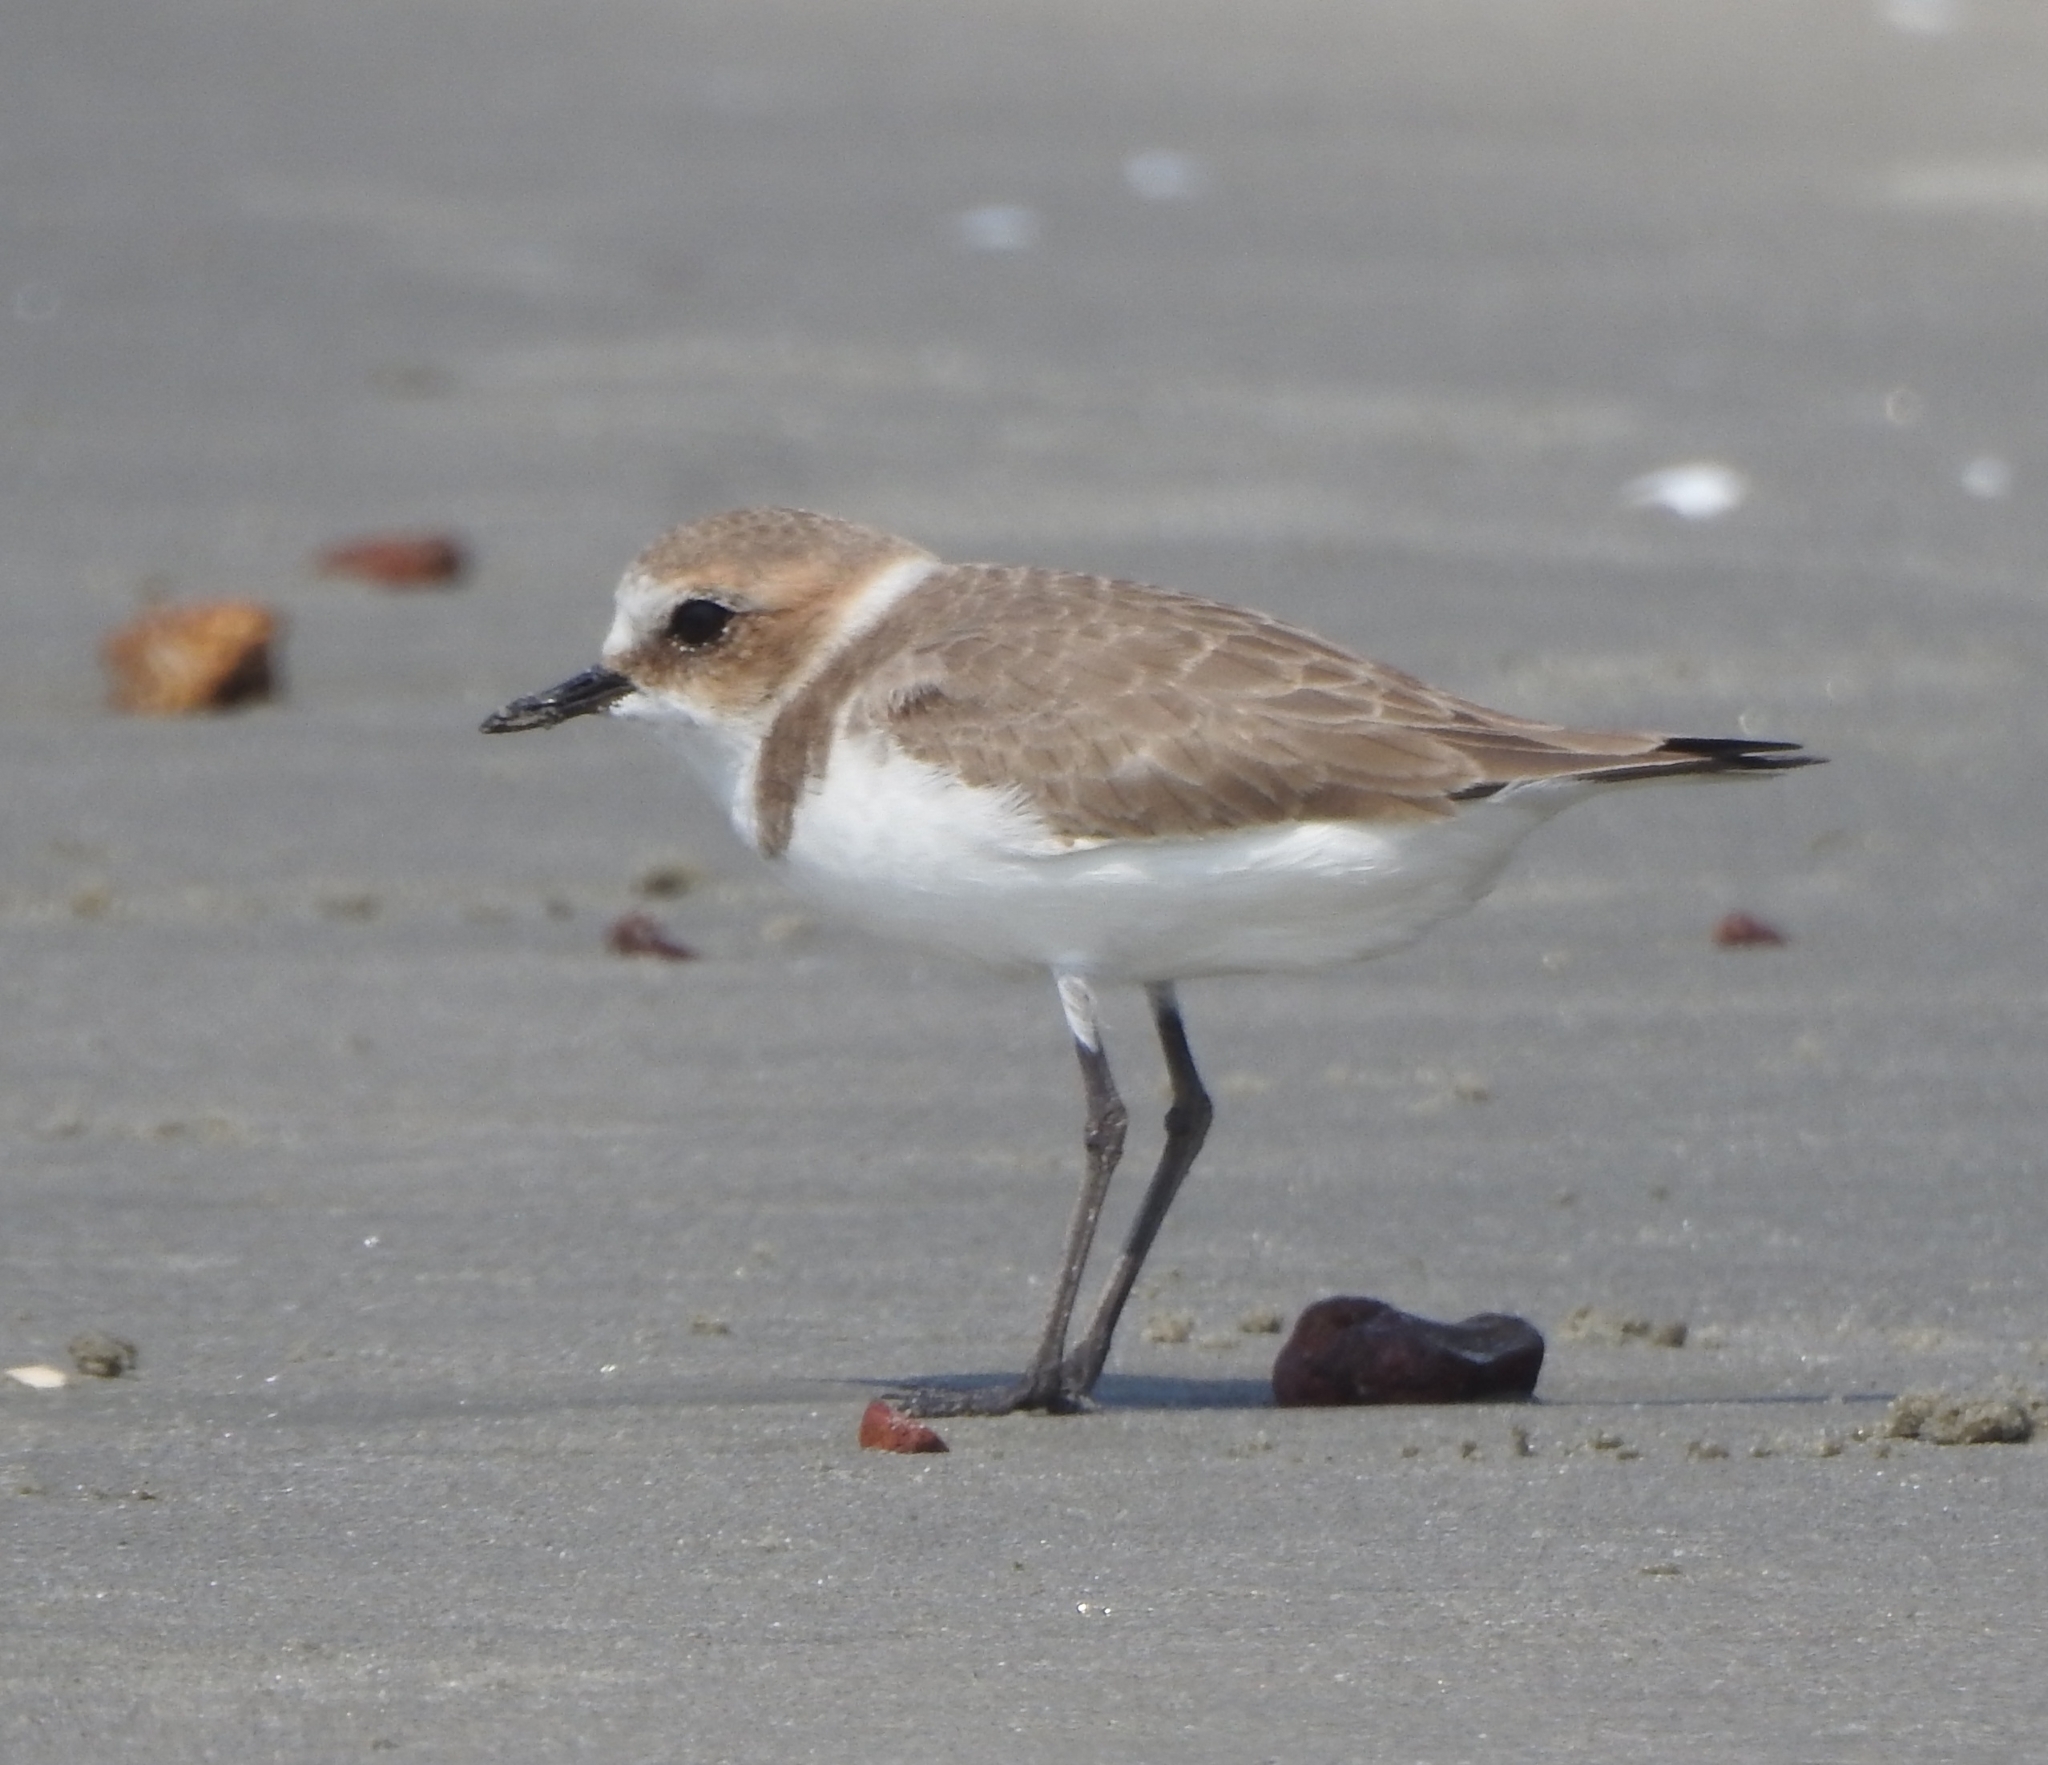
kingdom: Animalia
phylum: Chordata
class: Aves
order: Charadriiformes
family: Charadriidae
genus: Charadrius
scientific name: Charadrius alexandrinus
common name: Kentish plover
